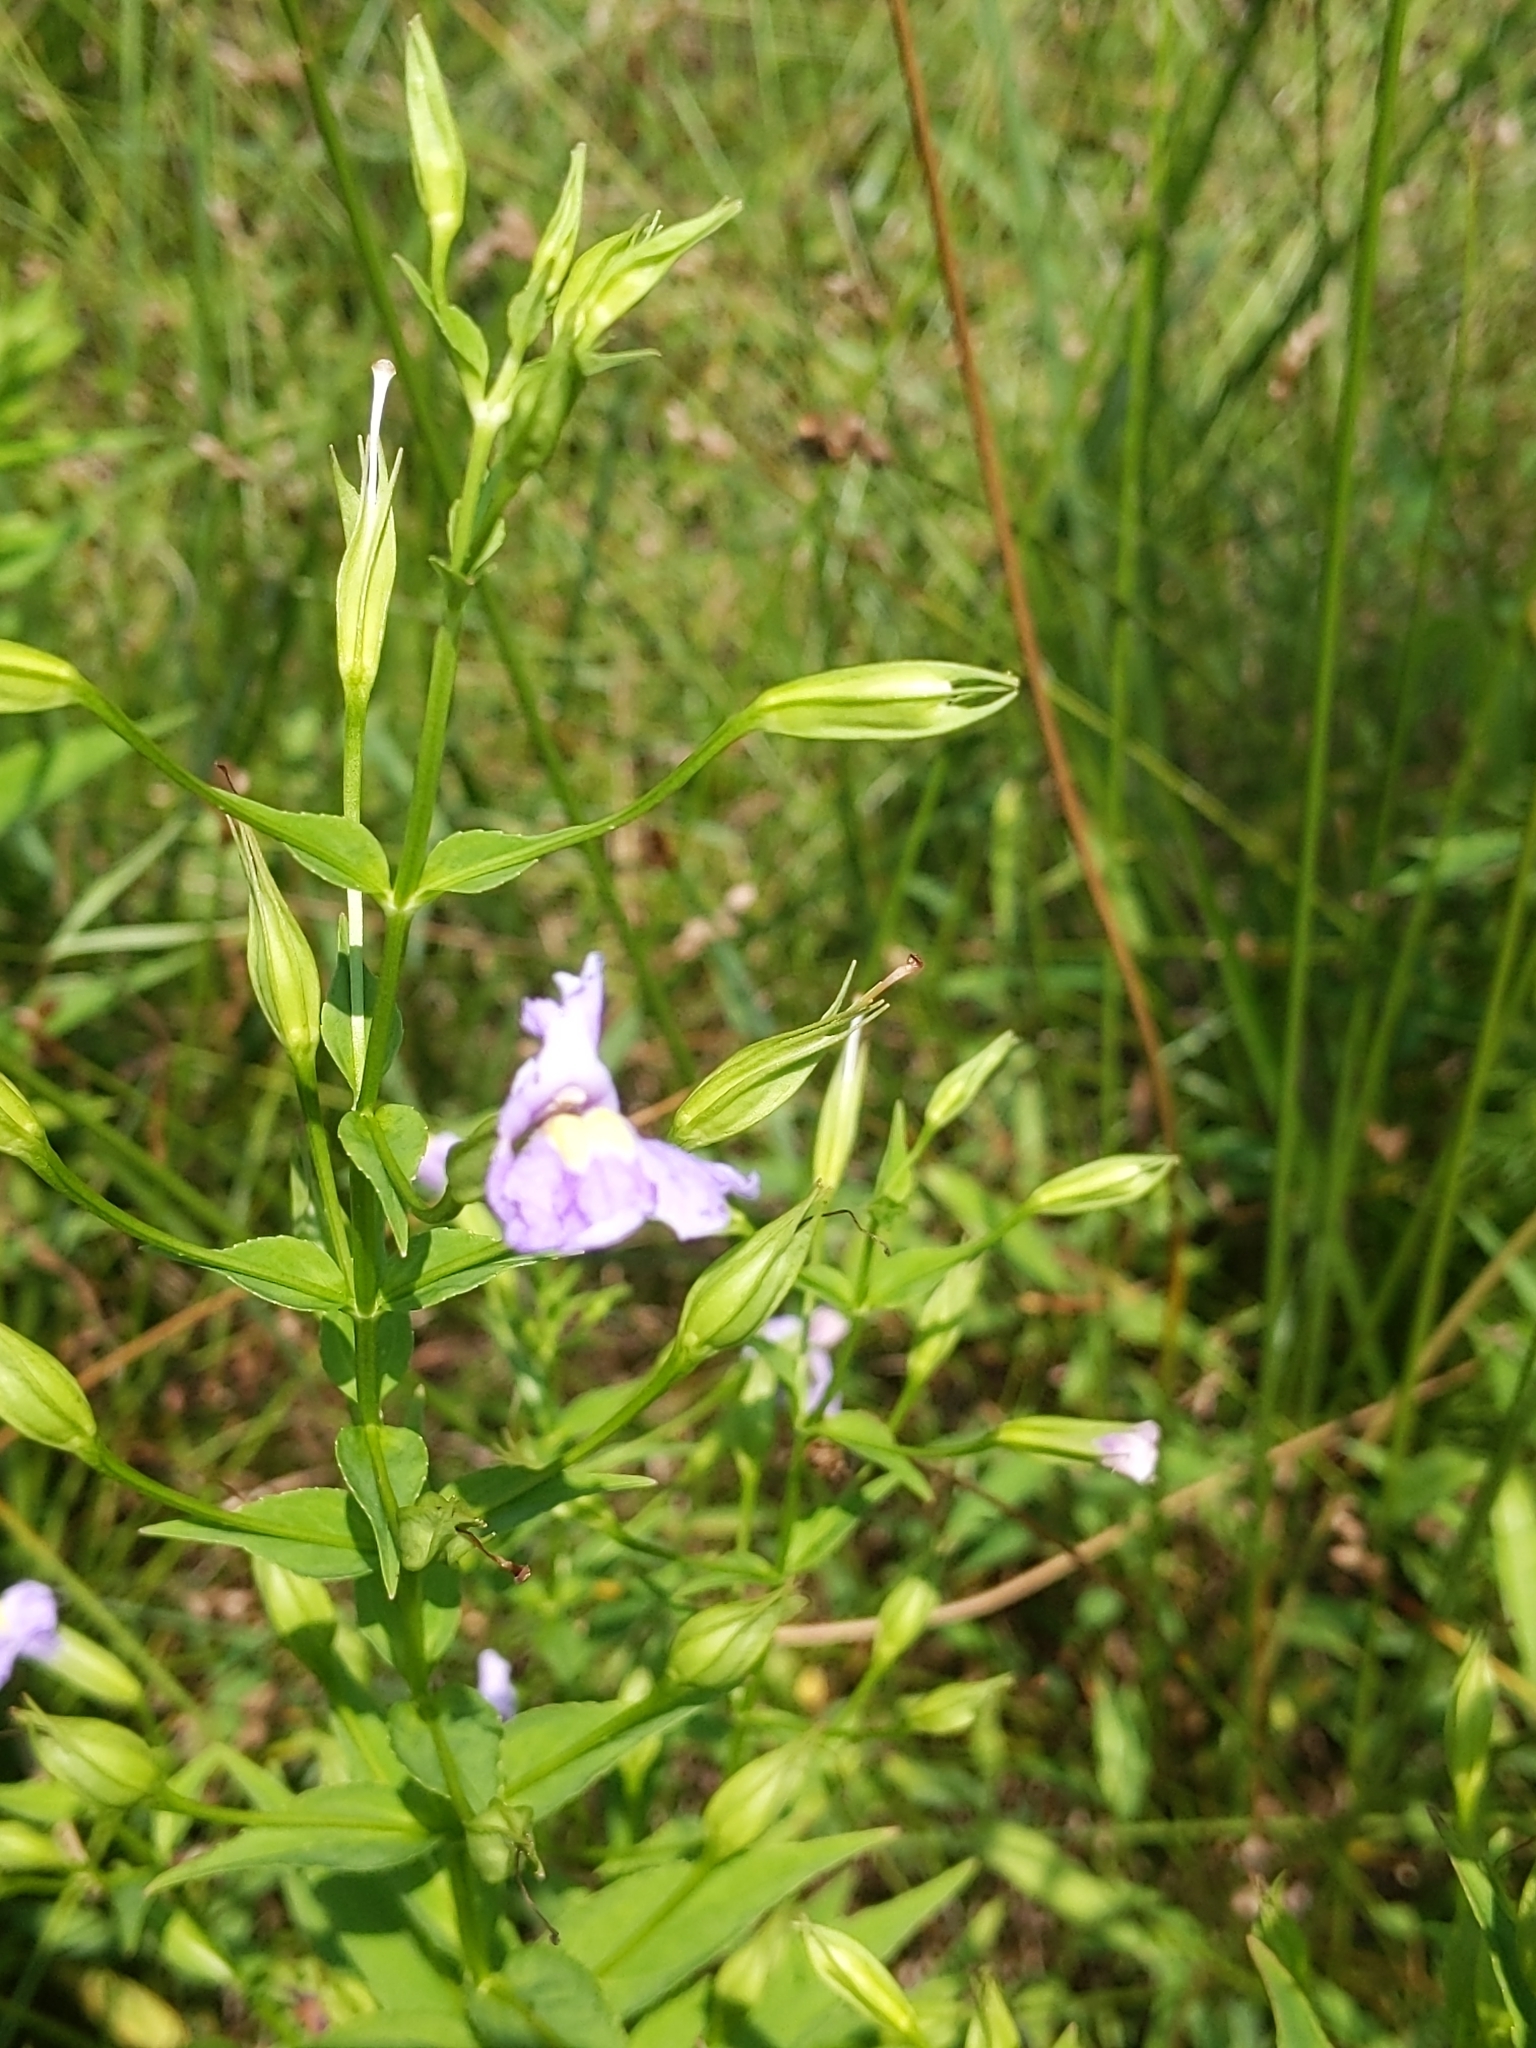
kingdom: Plantae
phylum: Tracheophyta
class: Magnoliopsida
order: Lamiales
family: Phrymaceae
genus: Mimulus
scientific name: Mimulus ringens
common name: Allegheny monkeyflower
